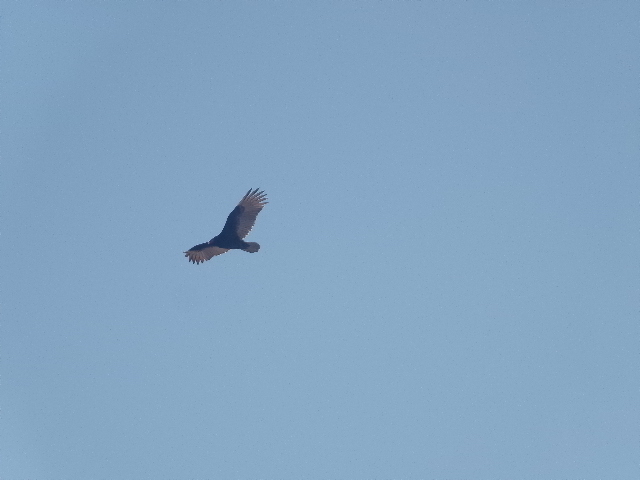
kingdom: Animalia
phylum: Chordata
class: Aves
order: Accipitriformes
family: Cathartidae
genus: Cathartes
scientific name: Cathartes aura
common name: Turkey vulture
